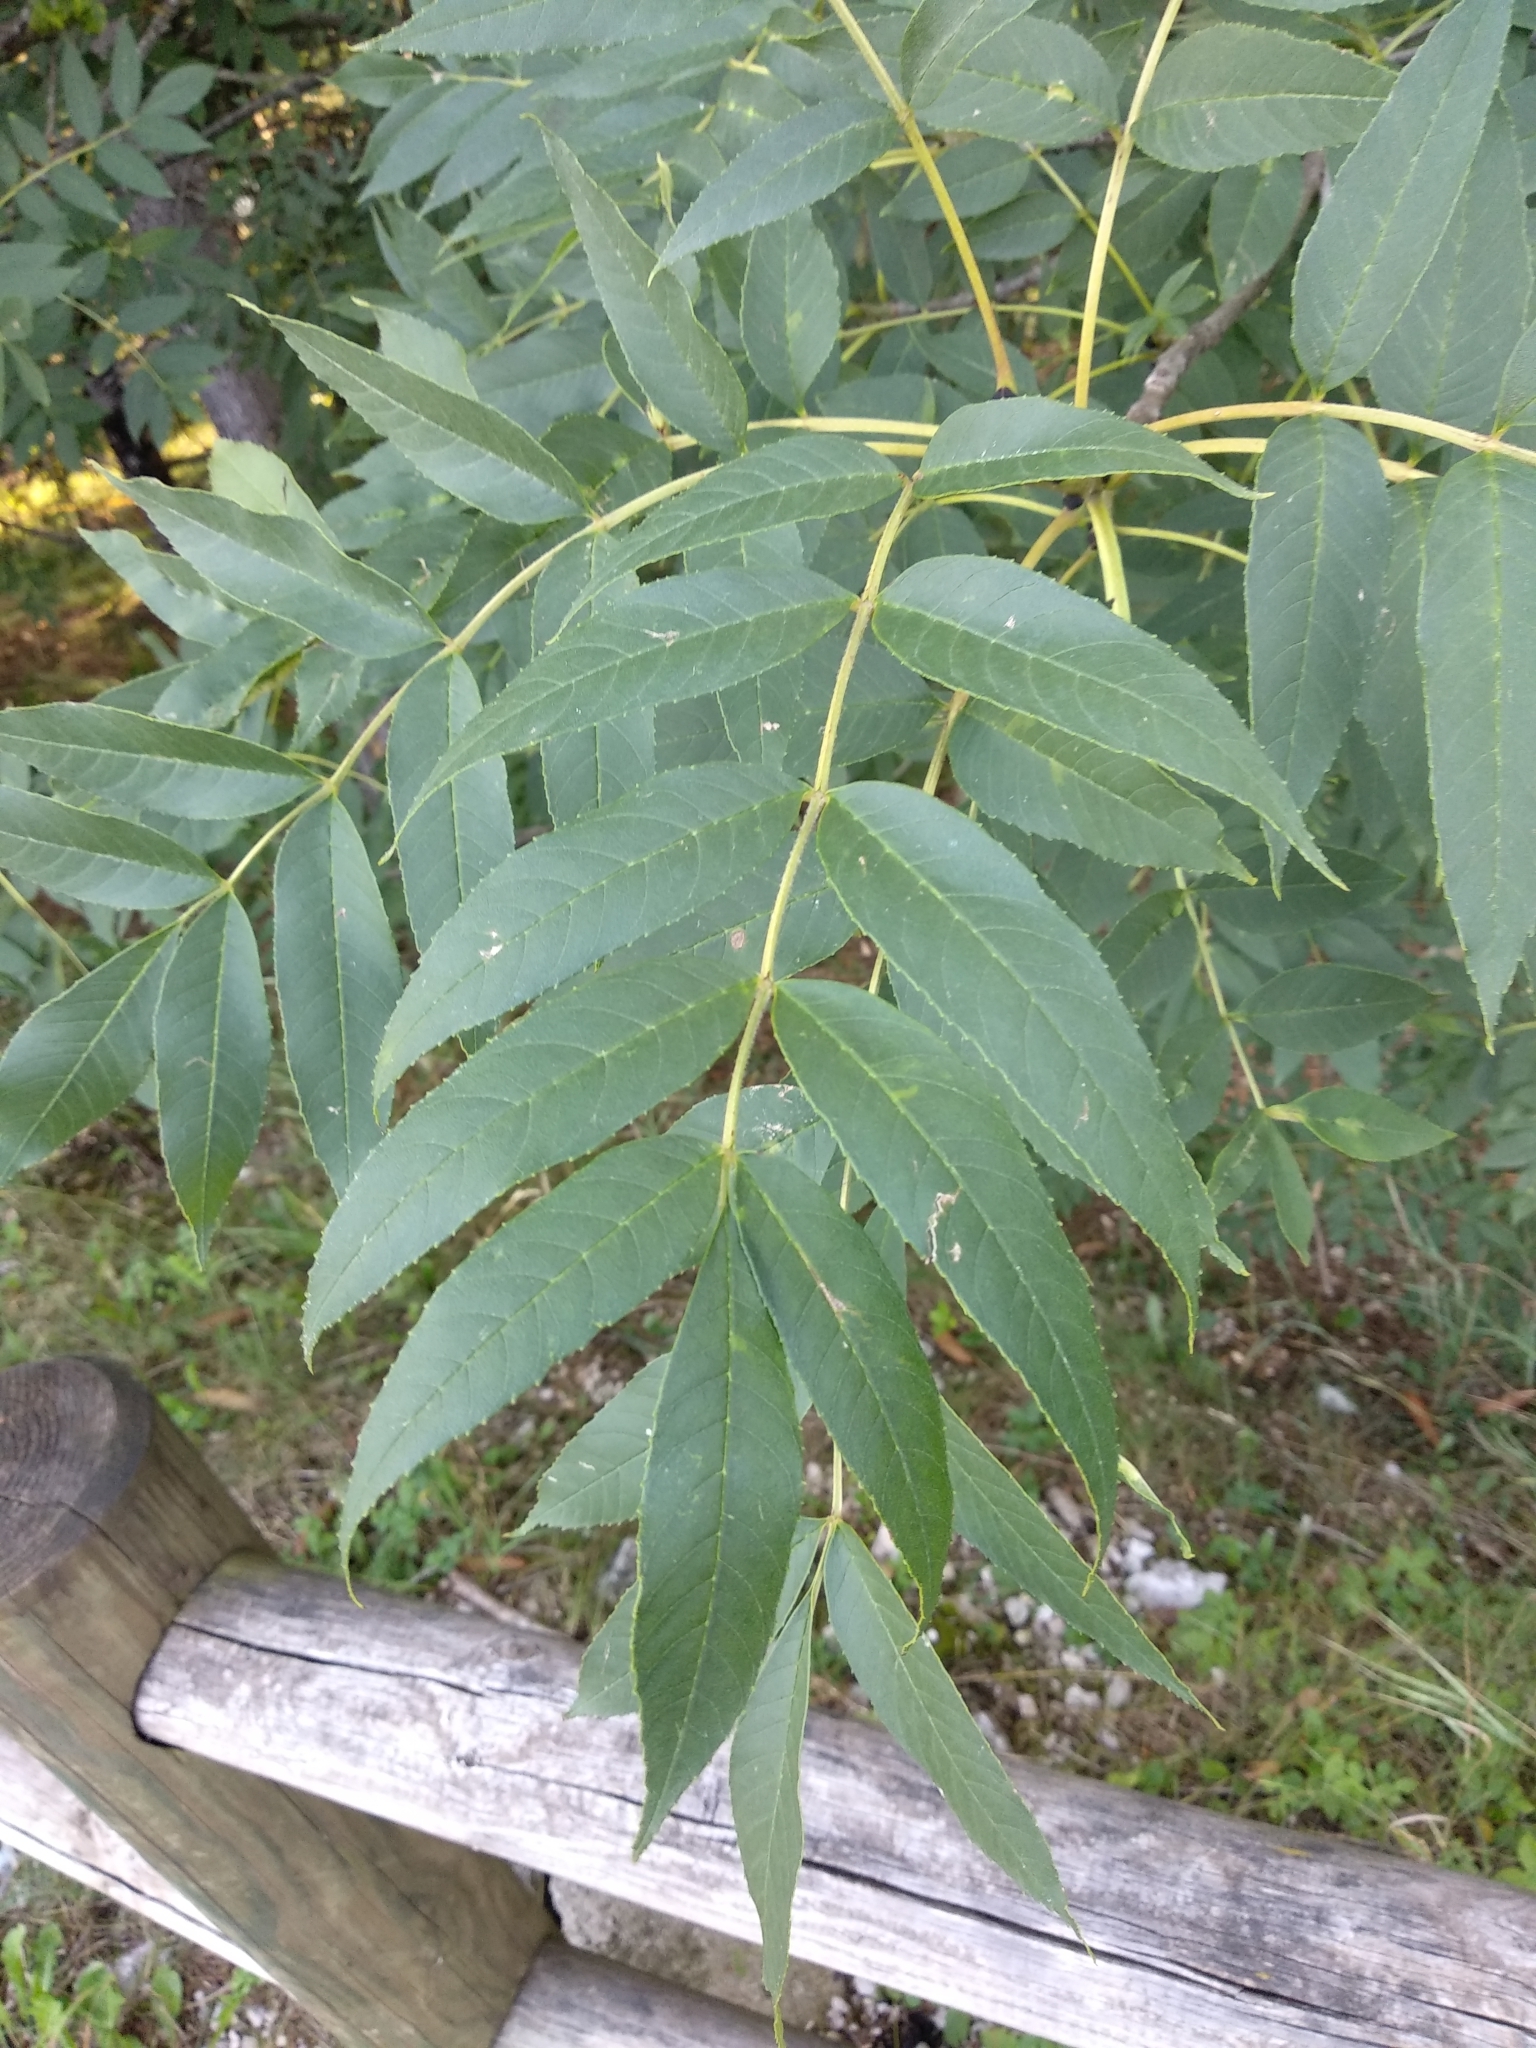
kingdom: Plantae
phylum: Tracheophyta
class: Magnoliopsida
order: Lamiales
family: Oleaceae
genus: Fraxinus
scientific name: Fraxinus excelsior
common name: European ash
